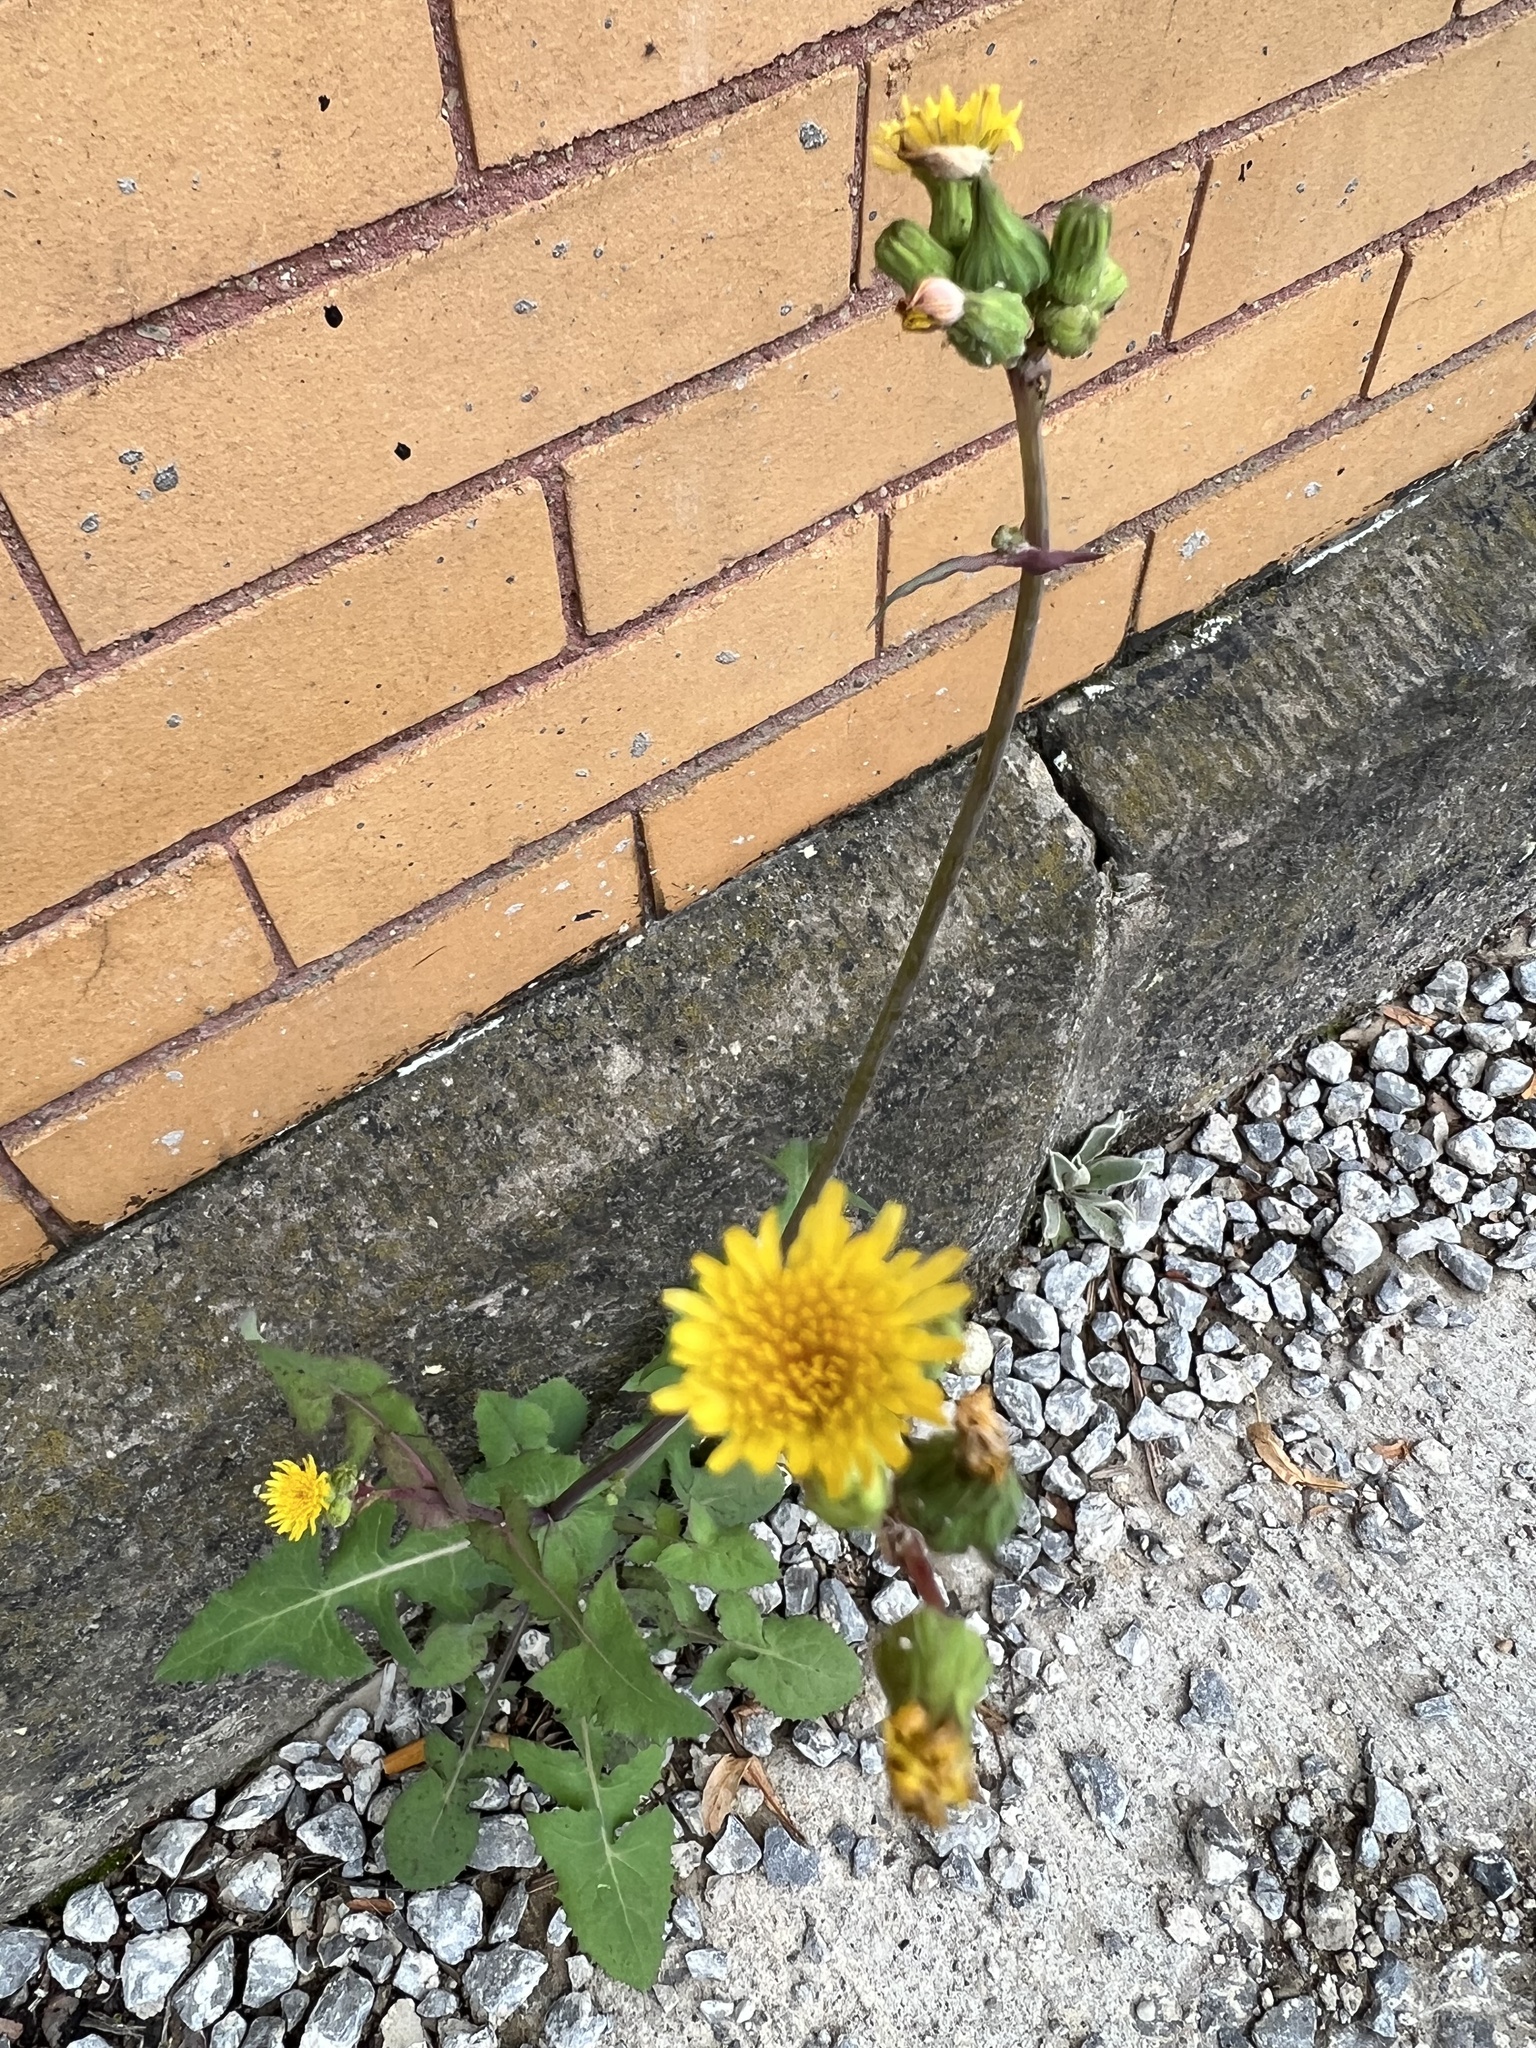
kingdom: Plantae
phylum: Tracheophyta
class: Magnoliopsida
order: Asterales
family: Asteraceae
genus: Sonchus
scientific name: Sonchus oleraceus
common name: Common sowthistle
